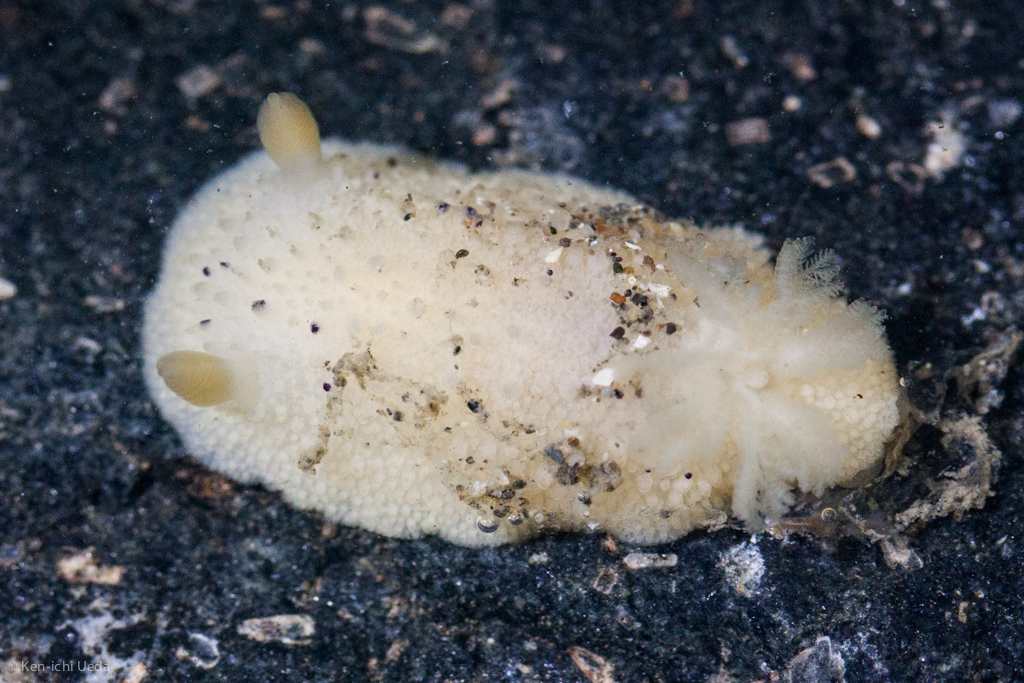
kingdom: Animalia
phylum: Mollusca
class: Gastropoda
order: Nudibranchia
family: Dorididae
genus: Doris
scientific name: Doris montereyensis
